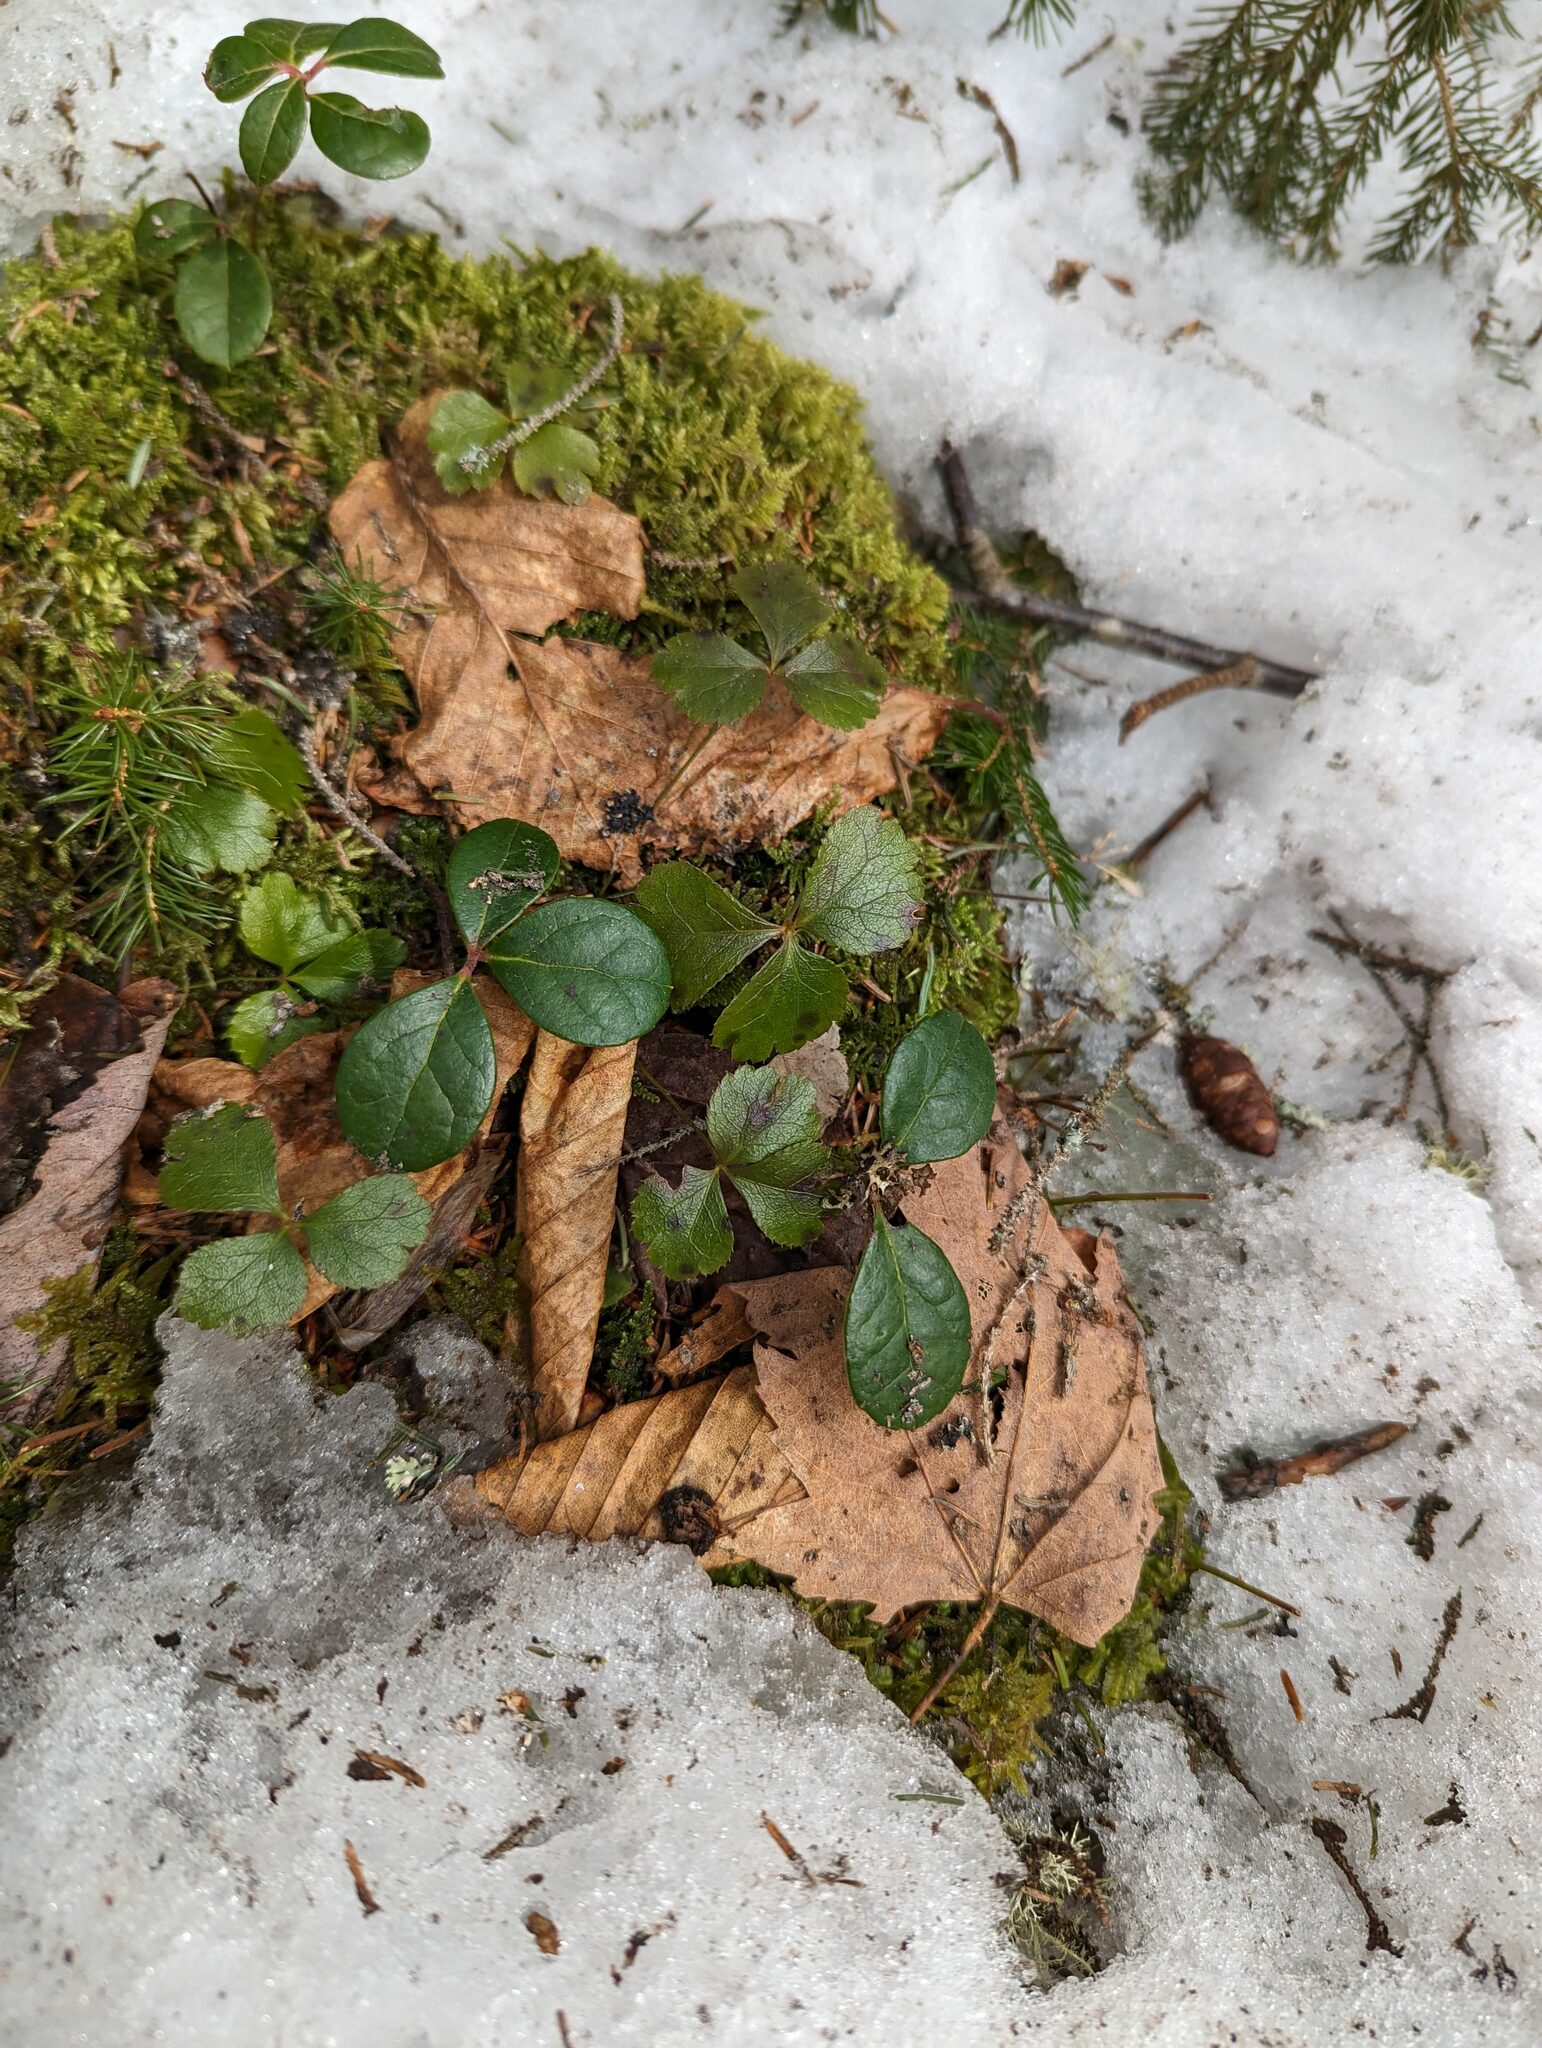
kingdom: Plantae
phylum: Tracheophyta
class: Magnoliopsida
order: Ericales
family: Ericaceae
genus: Gaultheria
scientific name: Gaultheria procumbens
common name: Checkerberry
